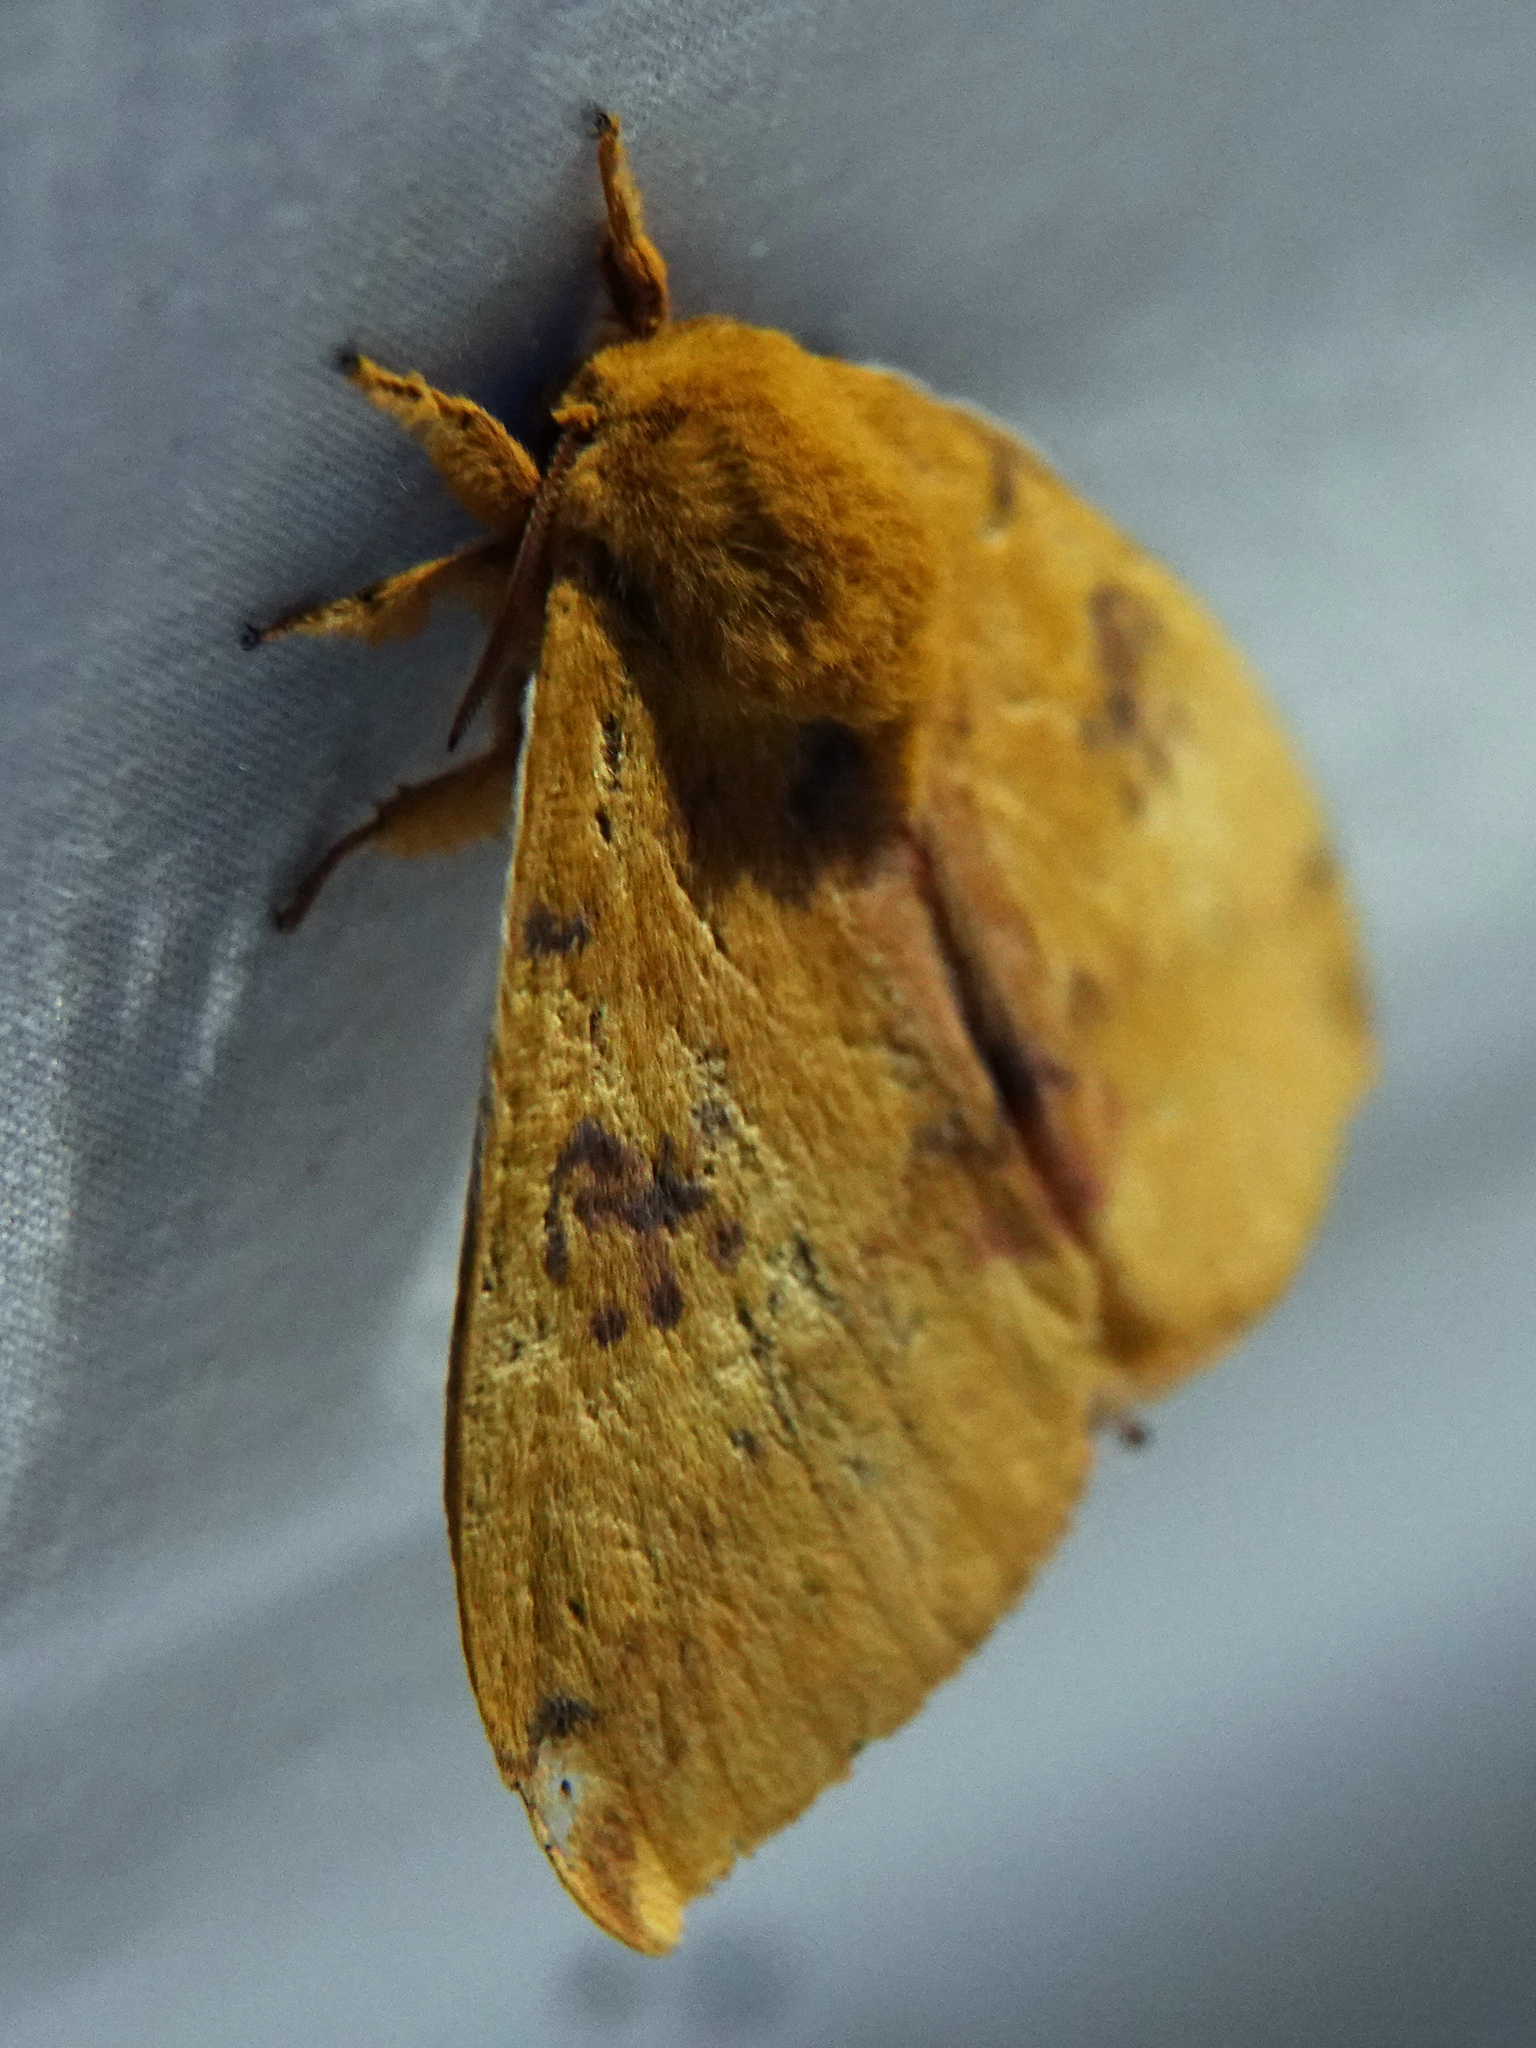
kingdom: Animalia
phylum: Arthropoda
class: Insecta
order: Lepidoptera
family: Saturniidae
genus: Automeris
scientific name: Automeris io
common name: Io moth
